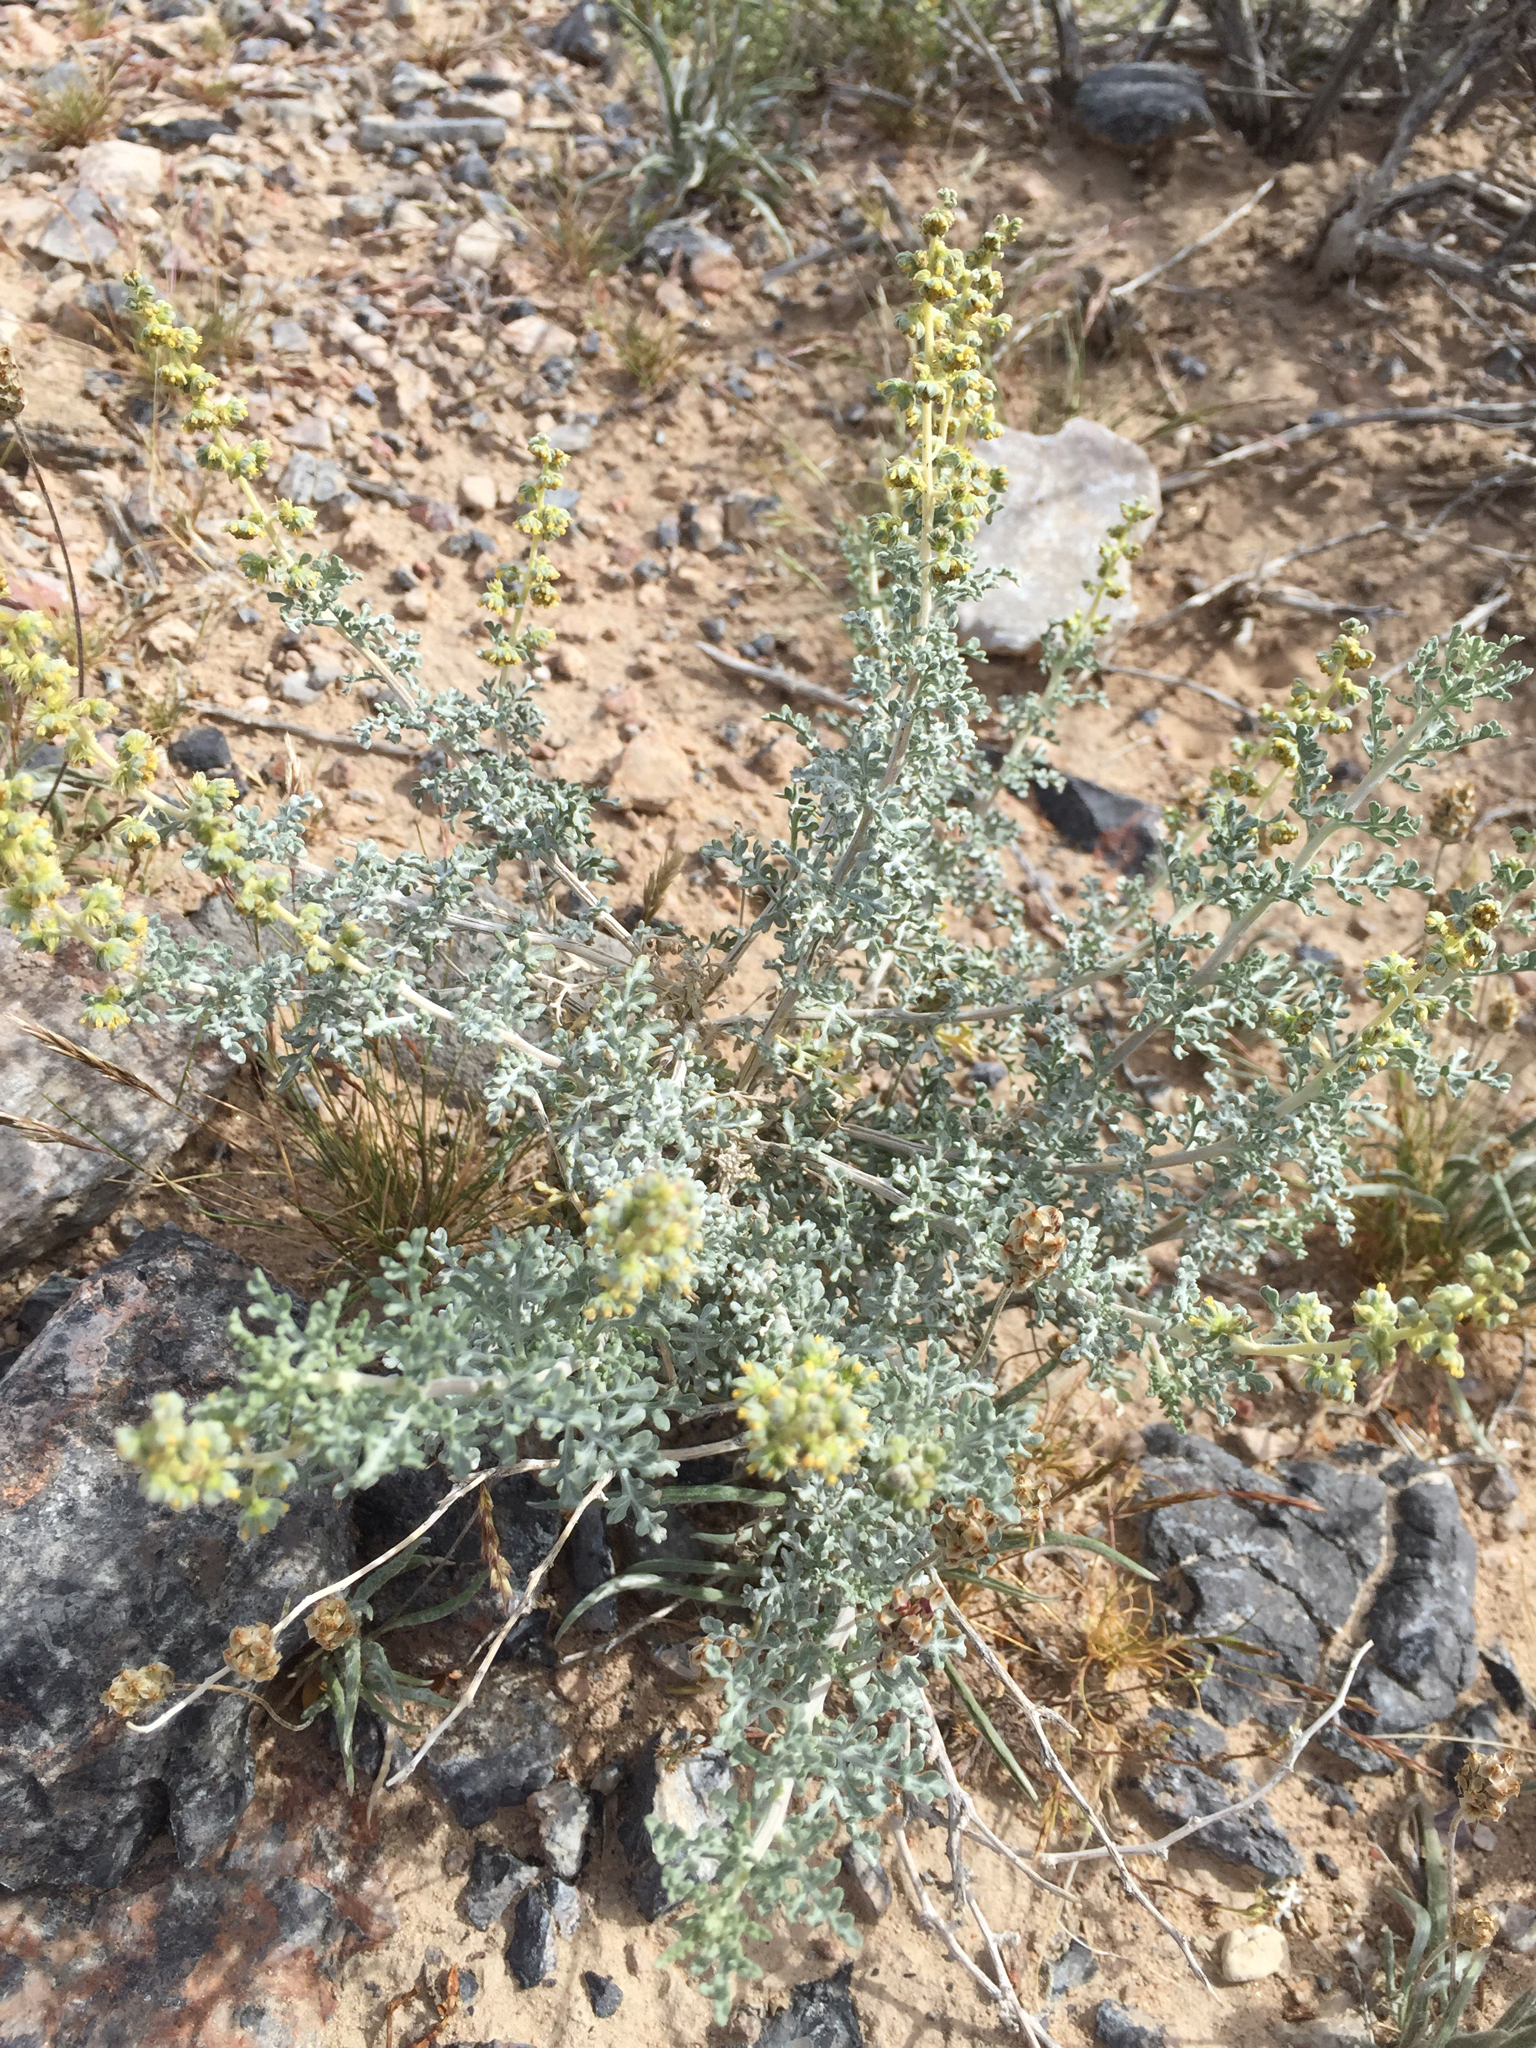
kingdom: Plantae
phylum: Tracheophyta
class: Magnoliopsida
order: Asterales
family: Asteraceae
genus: Ambrosia
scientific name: Ambrosia dumosa
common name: Bur-sage
